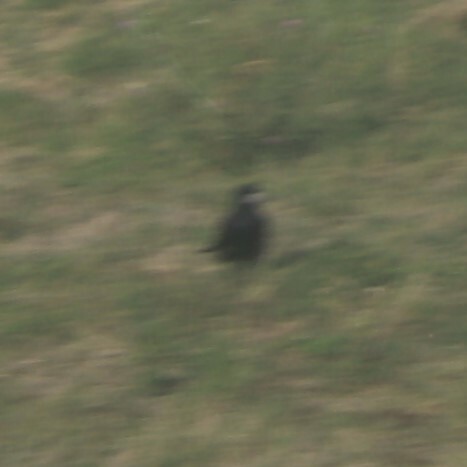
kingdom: Animalia
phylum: Chordata
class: Aves
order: Passeriformes
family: Corvidae
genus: Corvus
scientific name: Corvus frugilegus
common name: Rook
